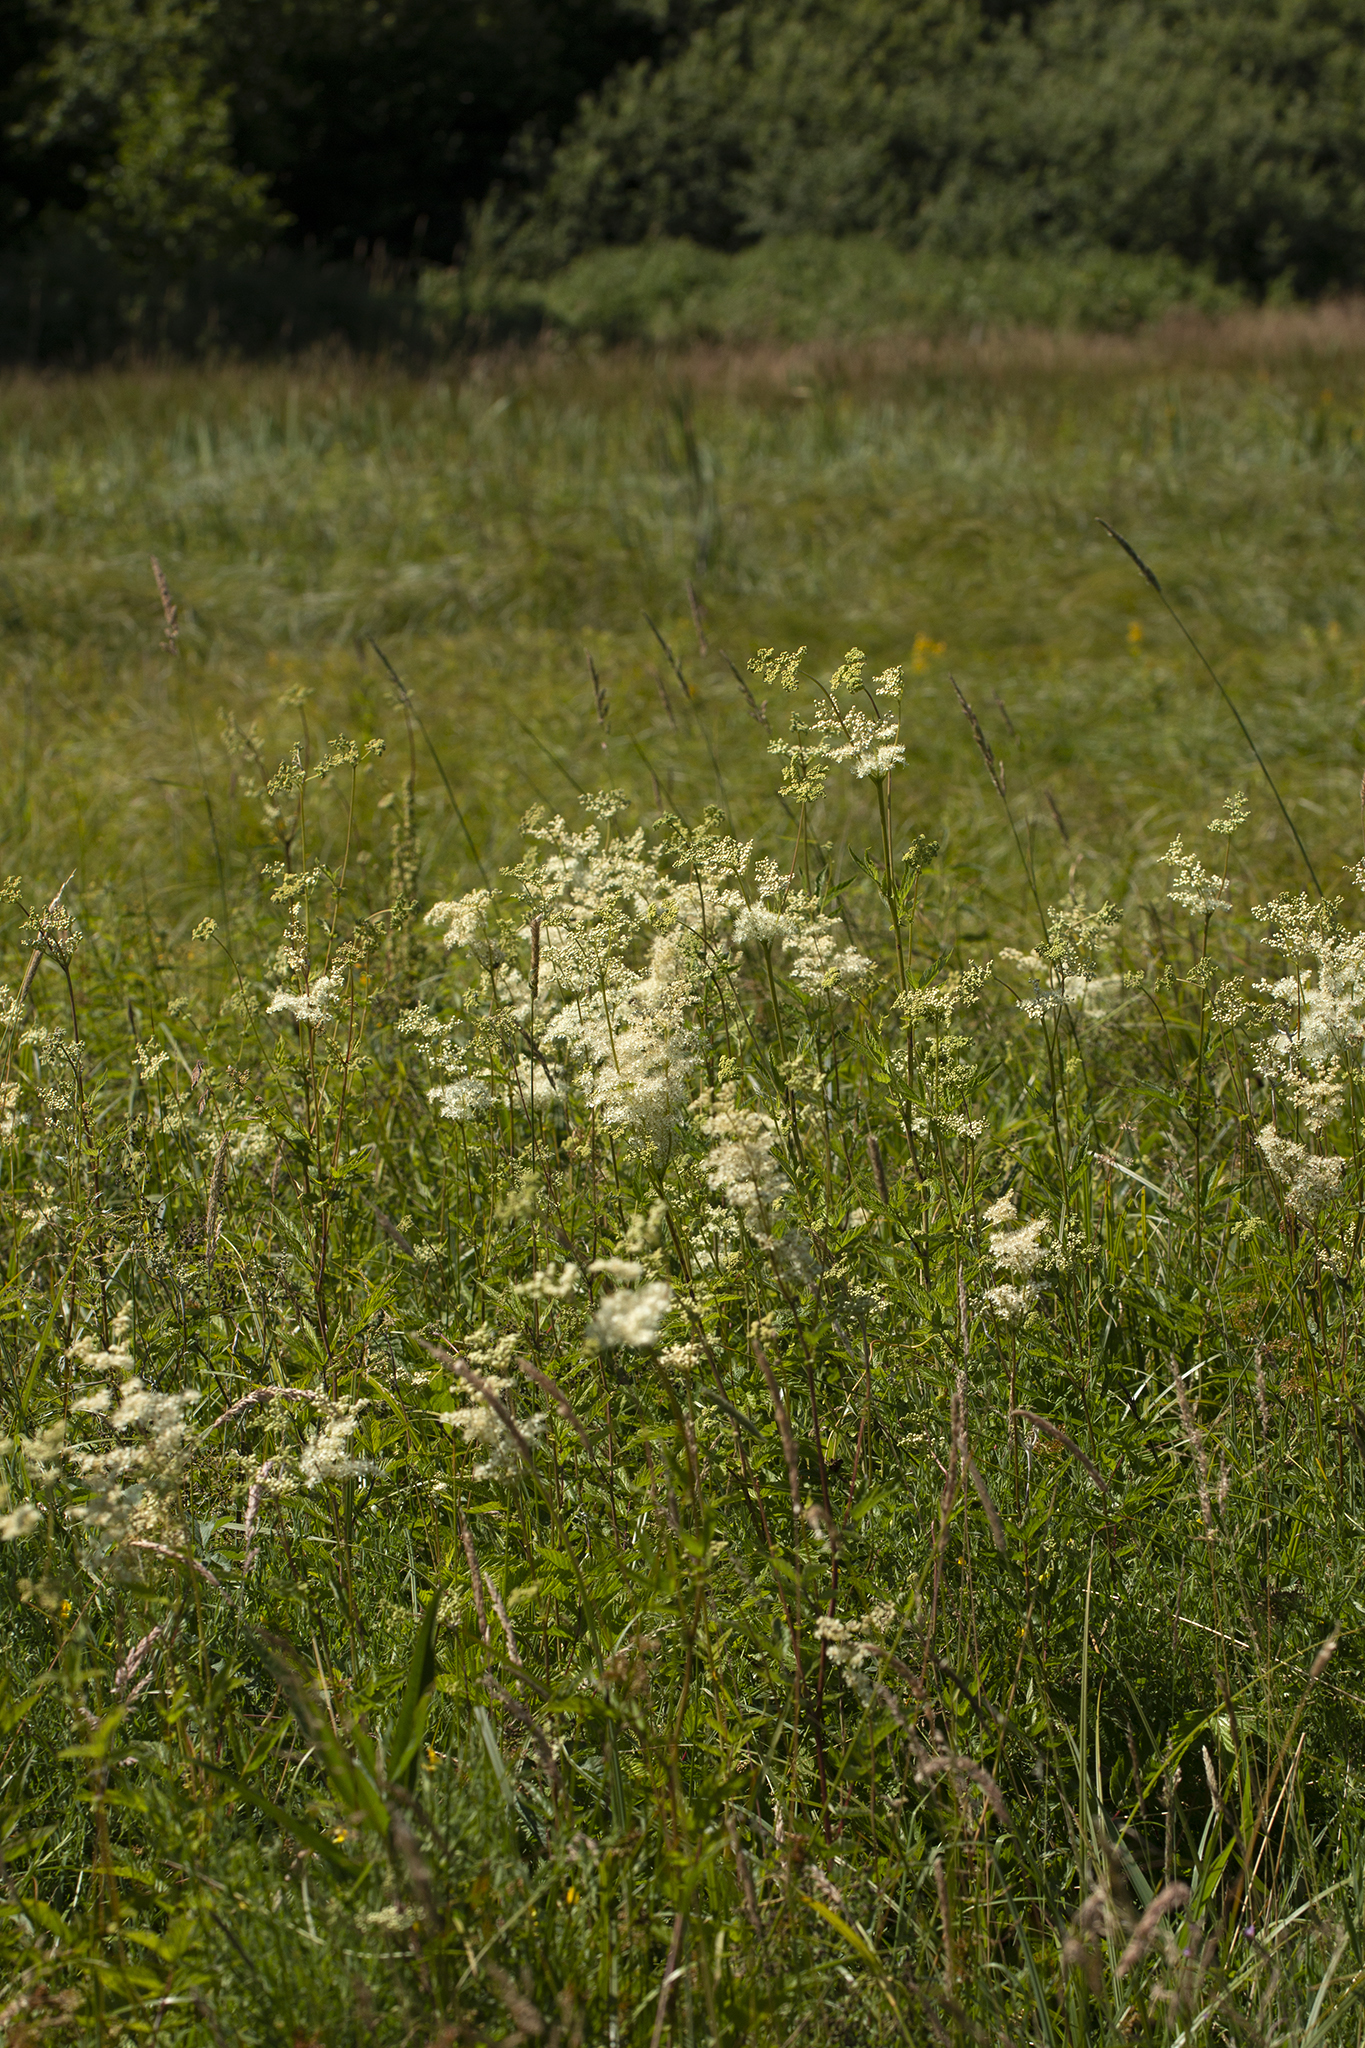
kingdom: Plantae
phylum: Tracheophyta
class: Magnoliopsida
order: Rosales
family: Rosaceae
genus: Filipendula
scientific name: Filipendula ulmaria
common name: Meadowsweet
